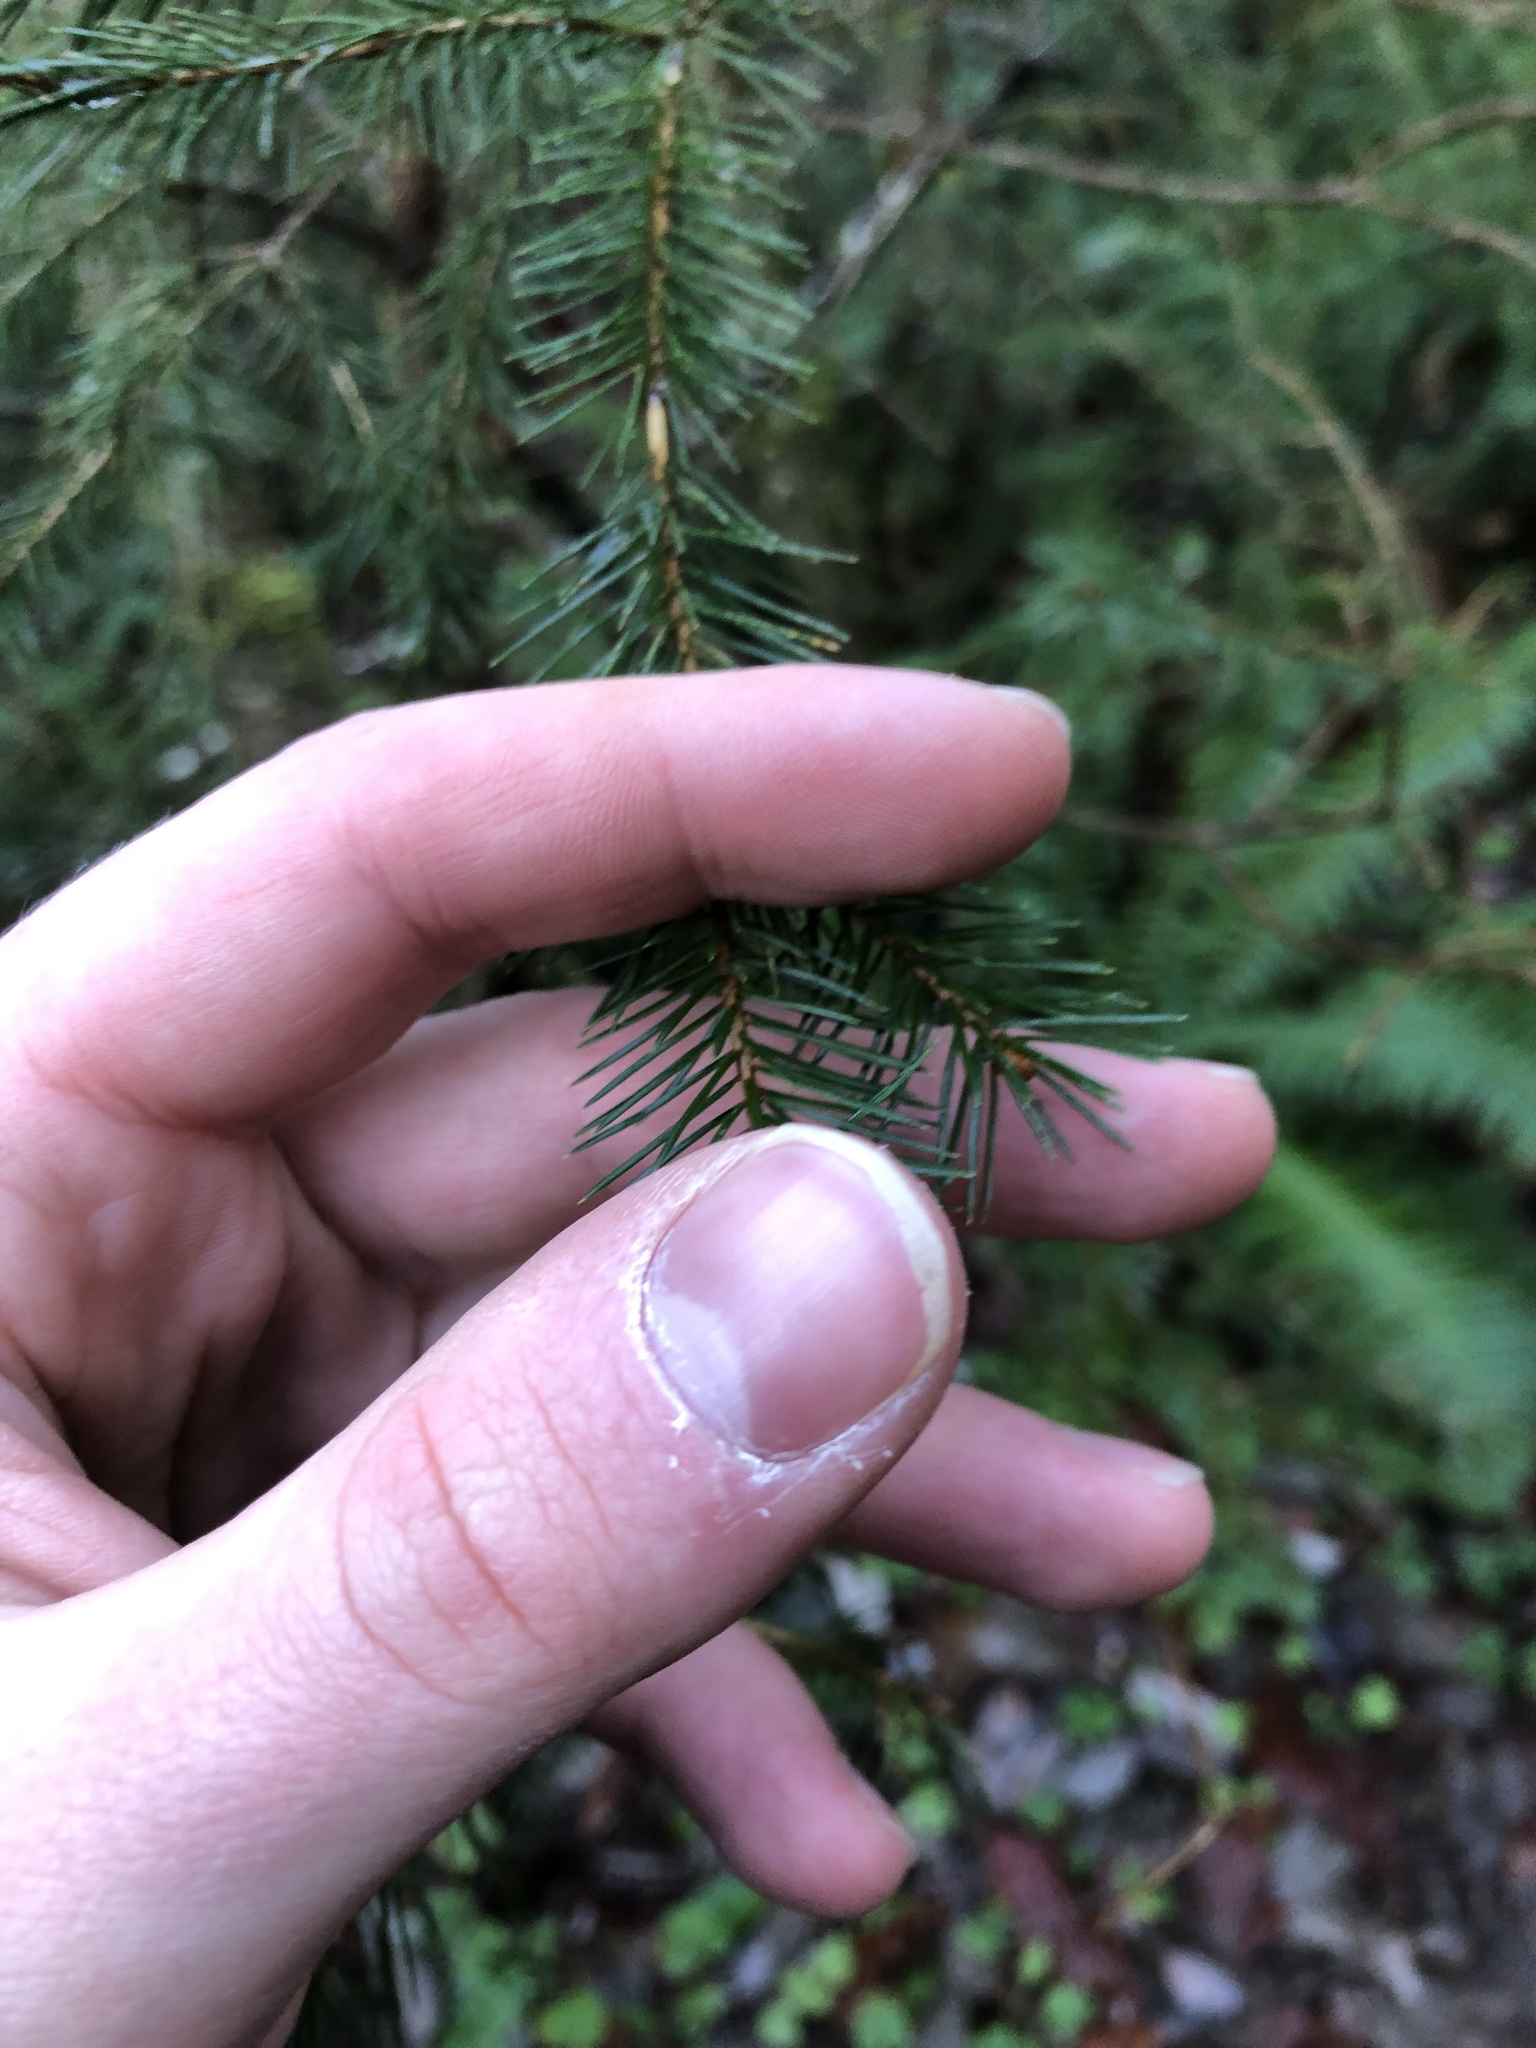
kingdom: Plantae
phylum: Tracheophyta
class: Pinopsida
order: Pinales
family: Pinaceae
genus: Picea
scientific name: Picea sitchensis
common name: Sitka spruce
